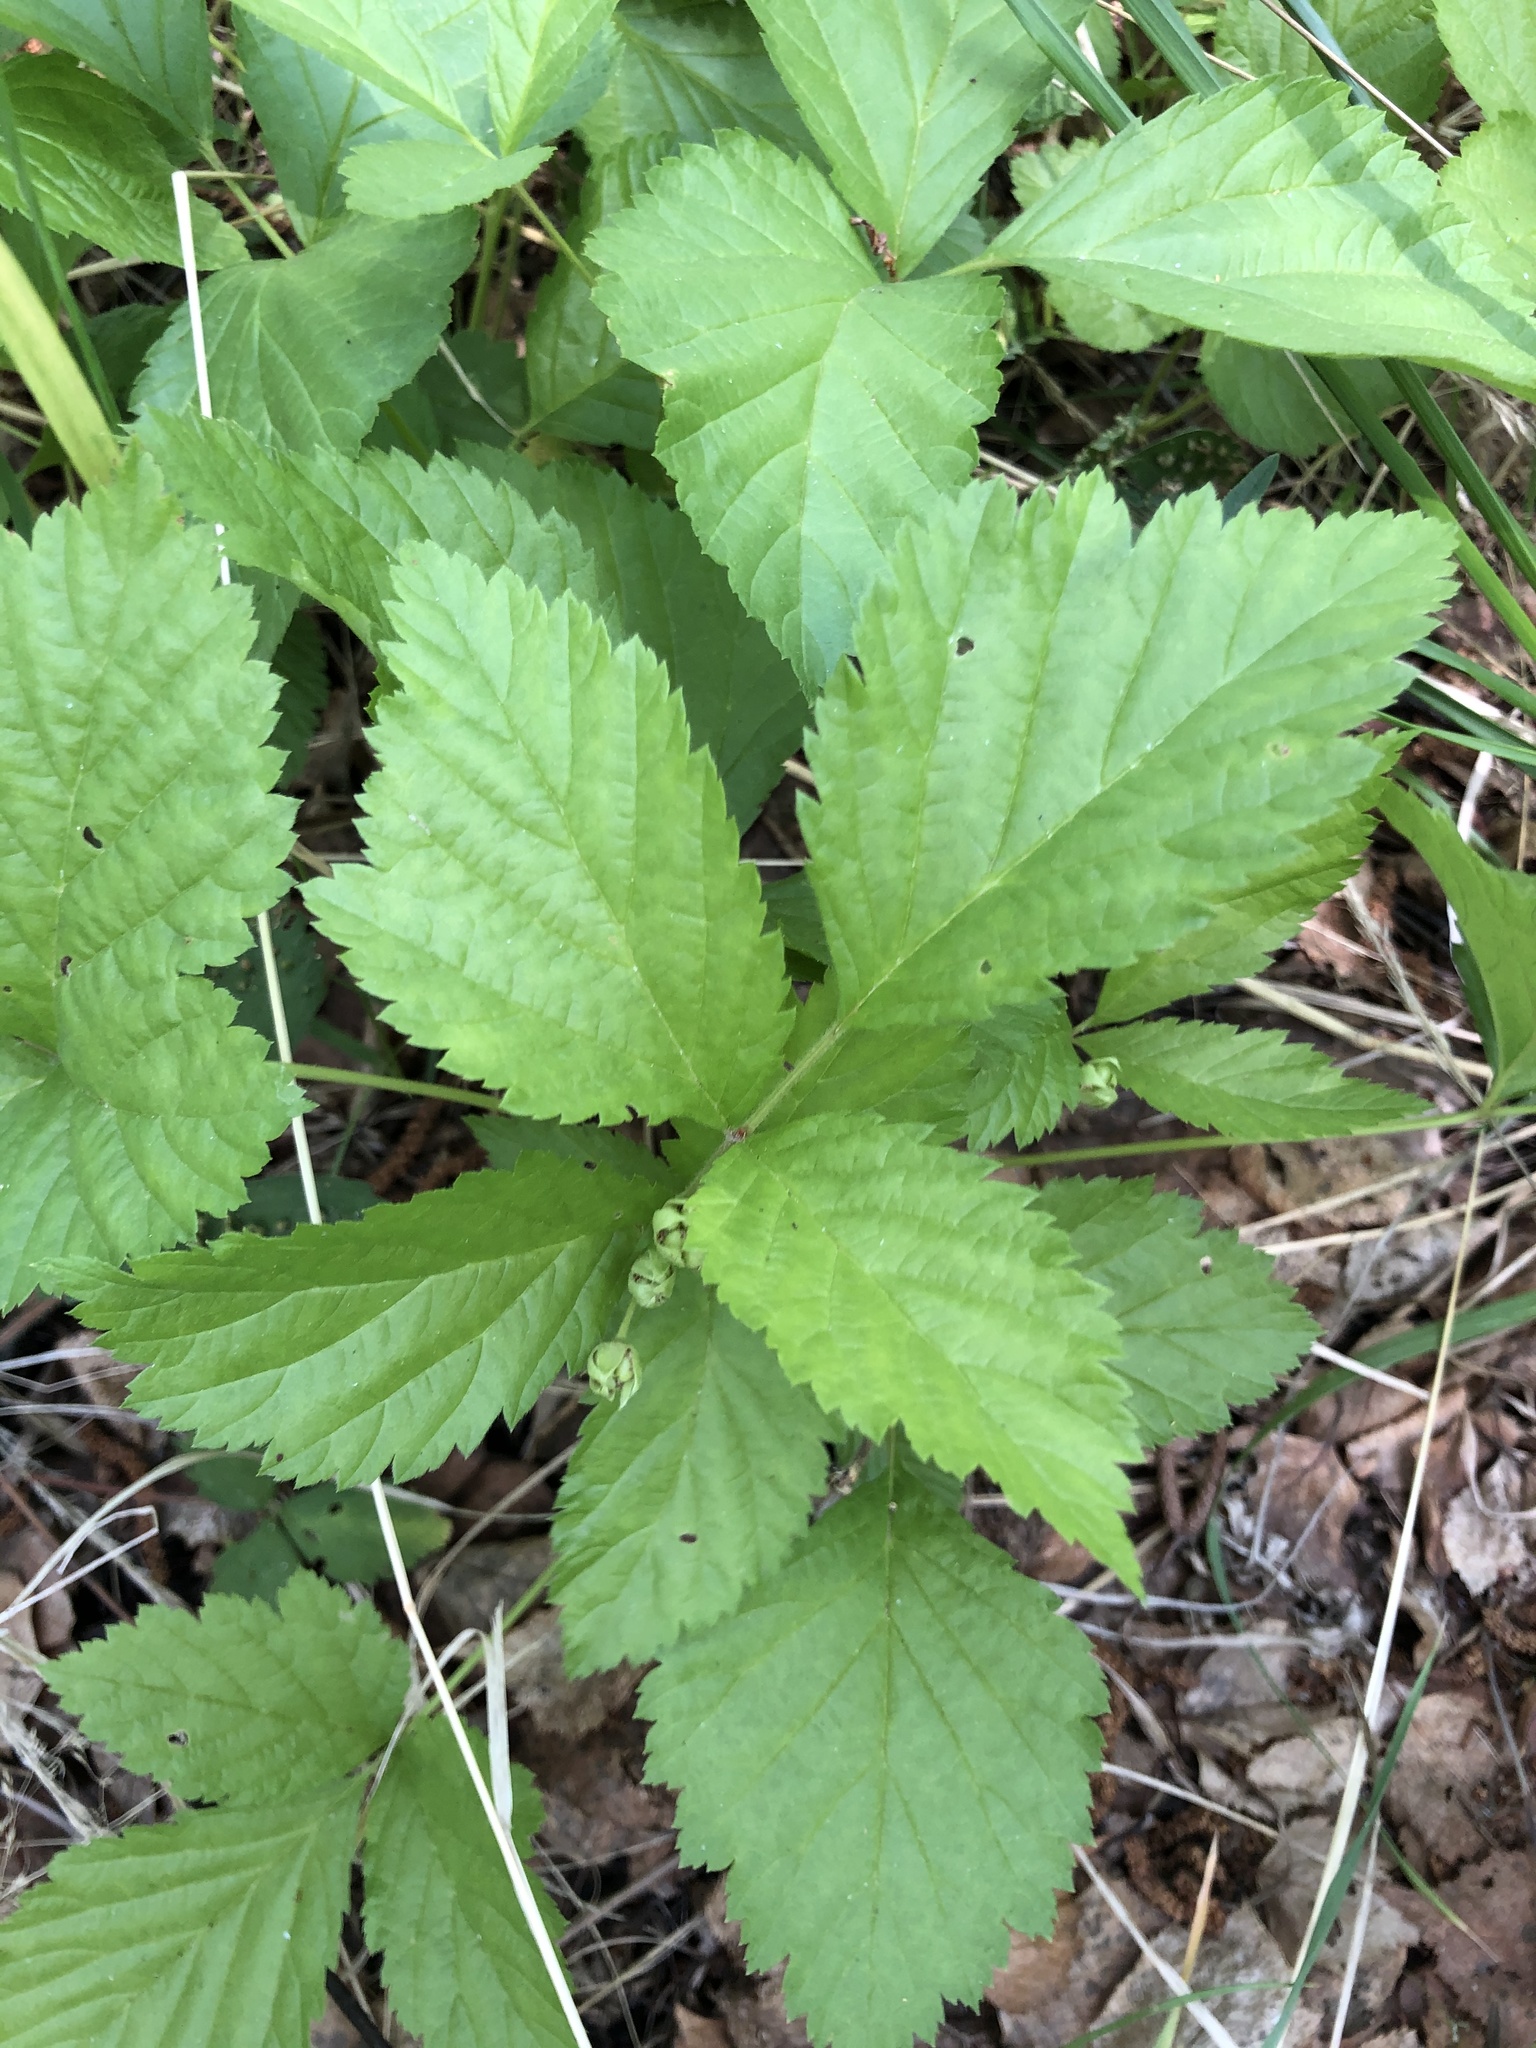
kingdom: Plantae
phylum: Tracheophyta
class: Magnoliopsida
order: Rosales
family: Rosaceae
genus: Rubus
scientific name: Rubus saxatilis
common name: Stone bramble
